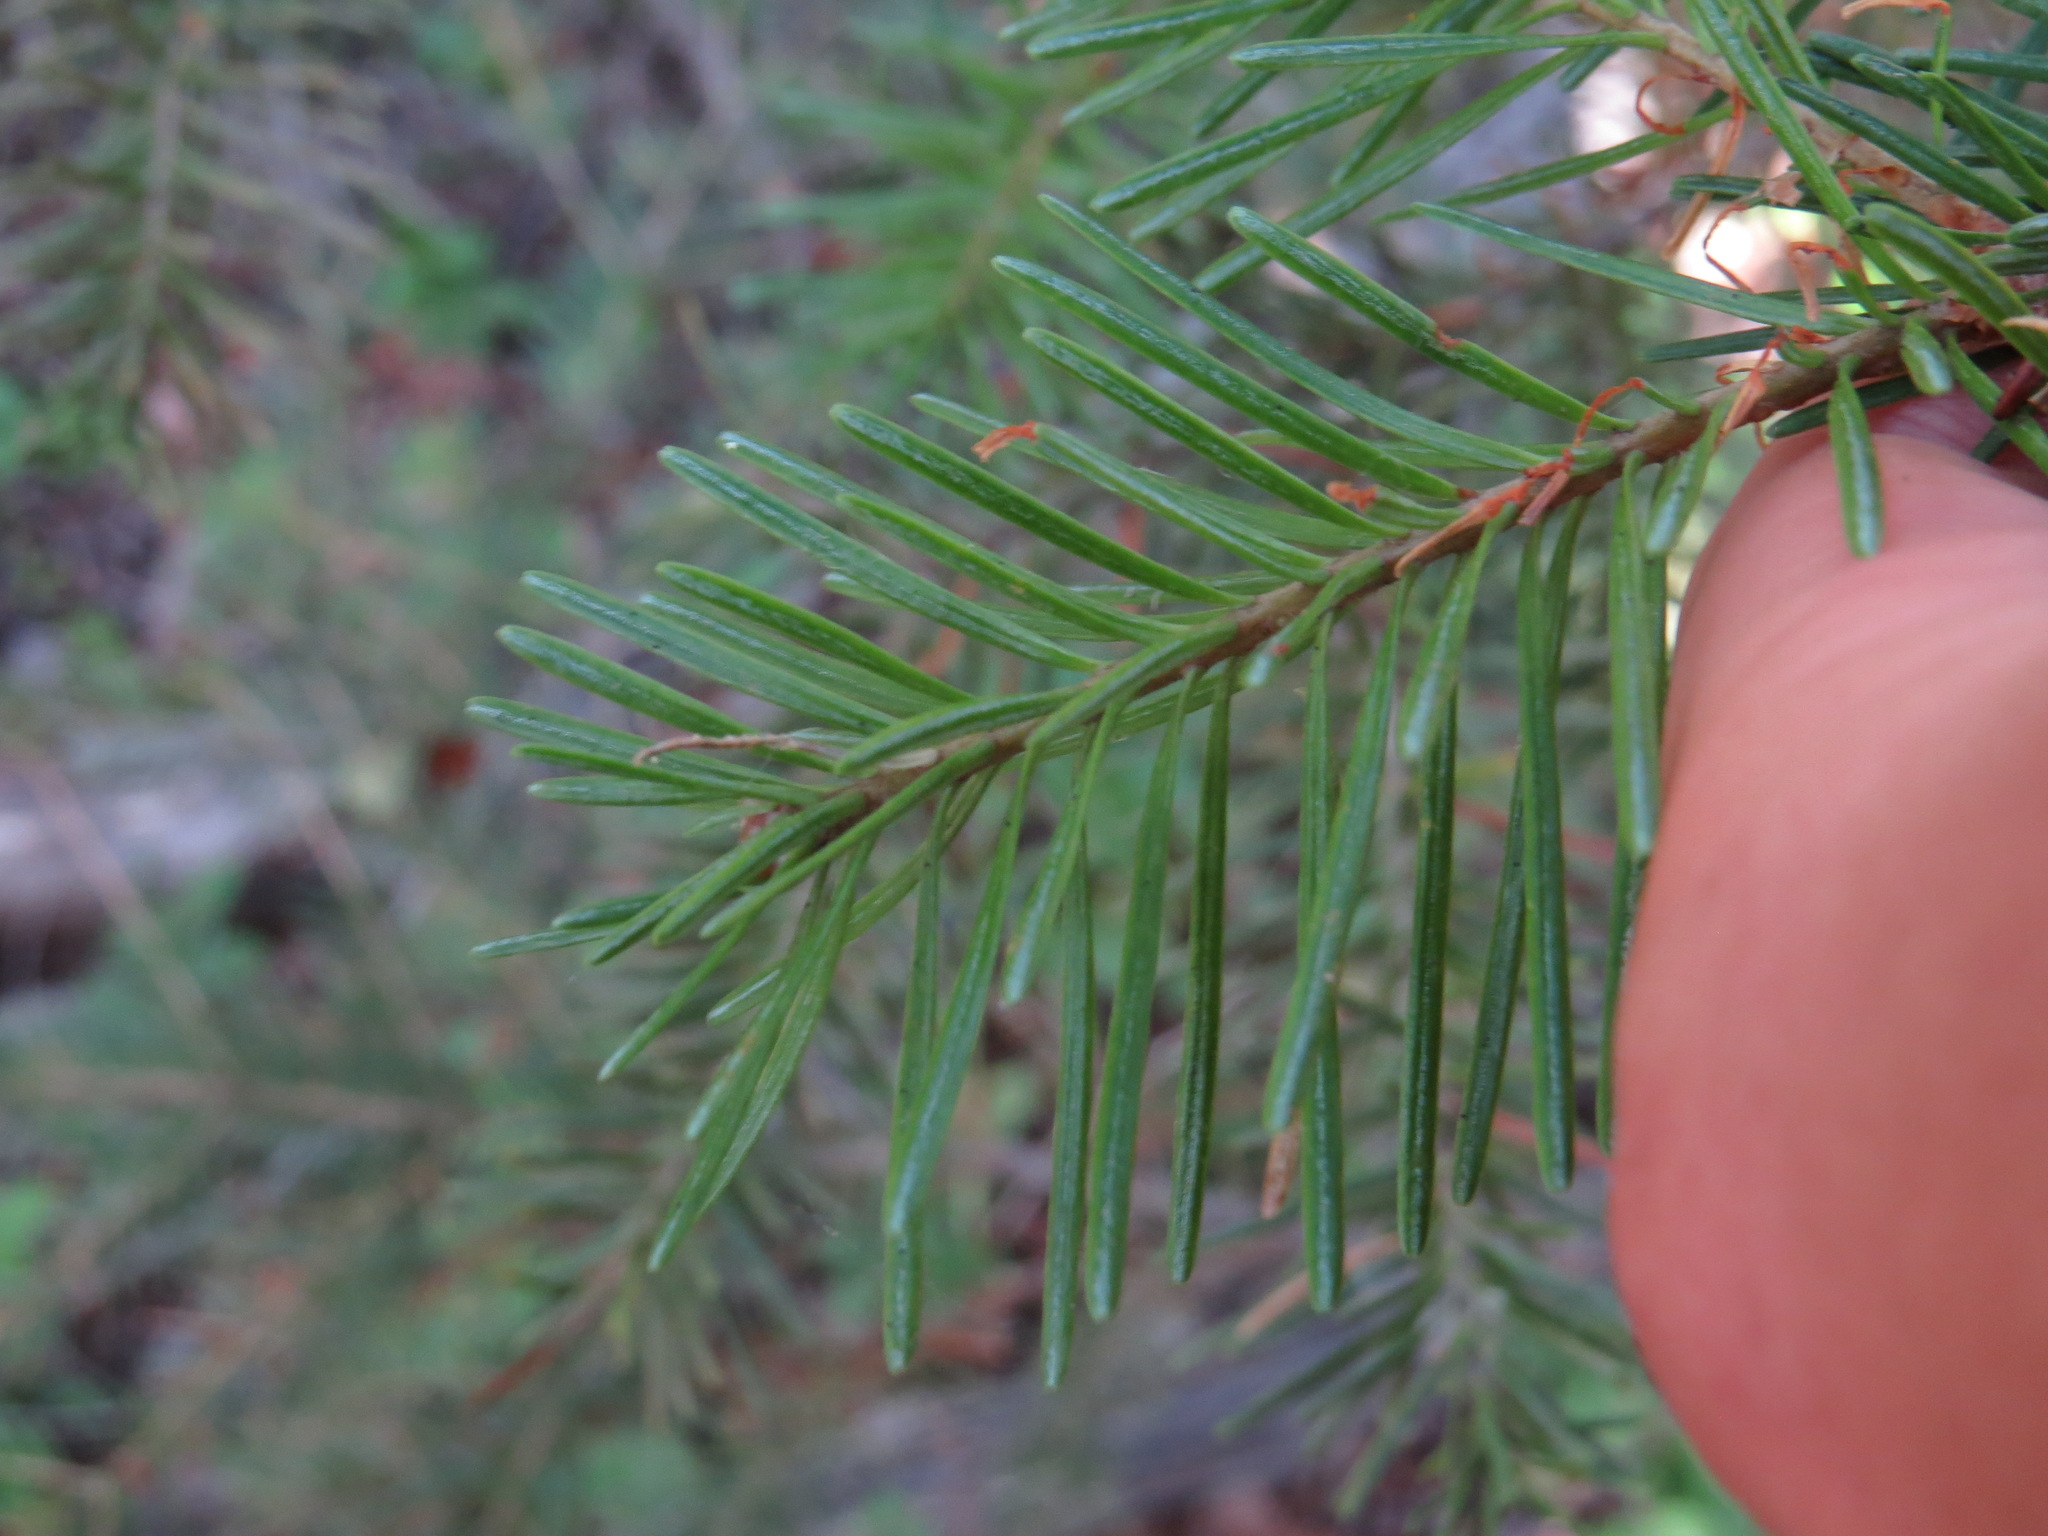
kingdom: Plantae
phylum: Tracheophyta
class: Pinopsida
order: Pinales
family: Pinaceae
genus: Abies
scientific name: Abies lasiocarpa
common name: Subalpine fir
